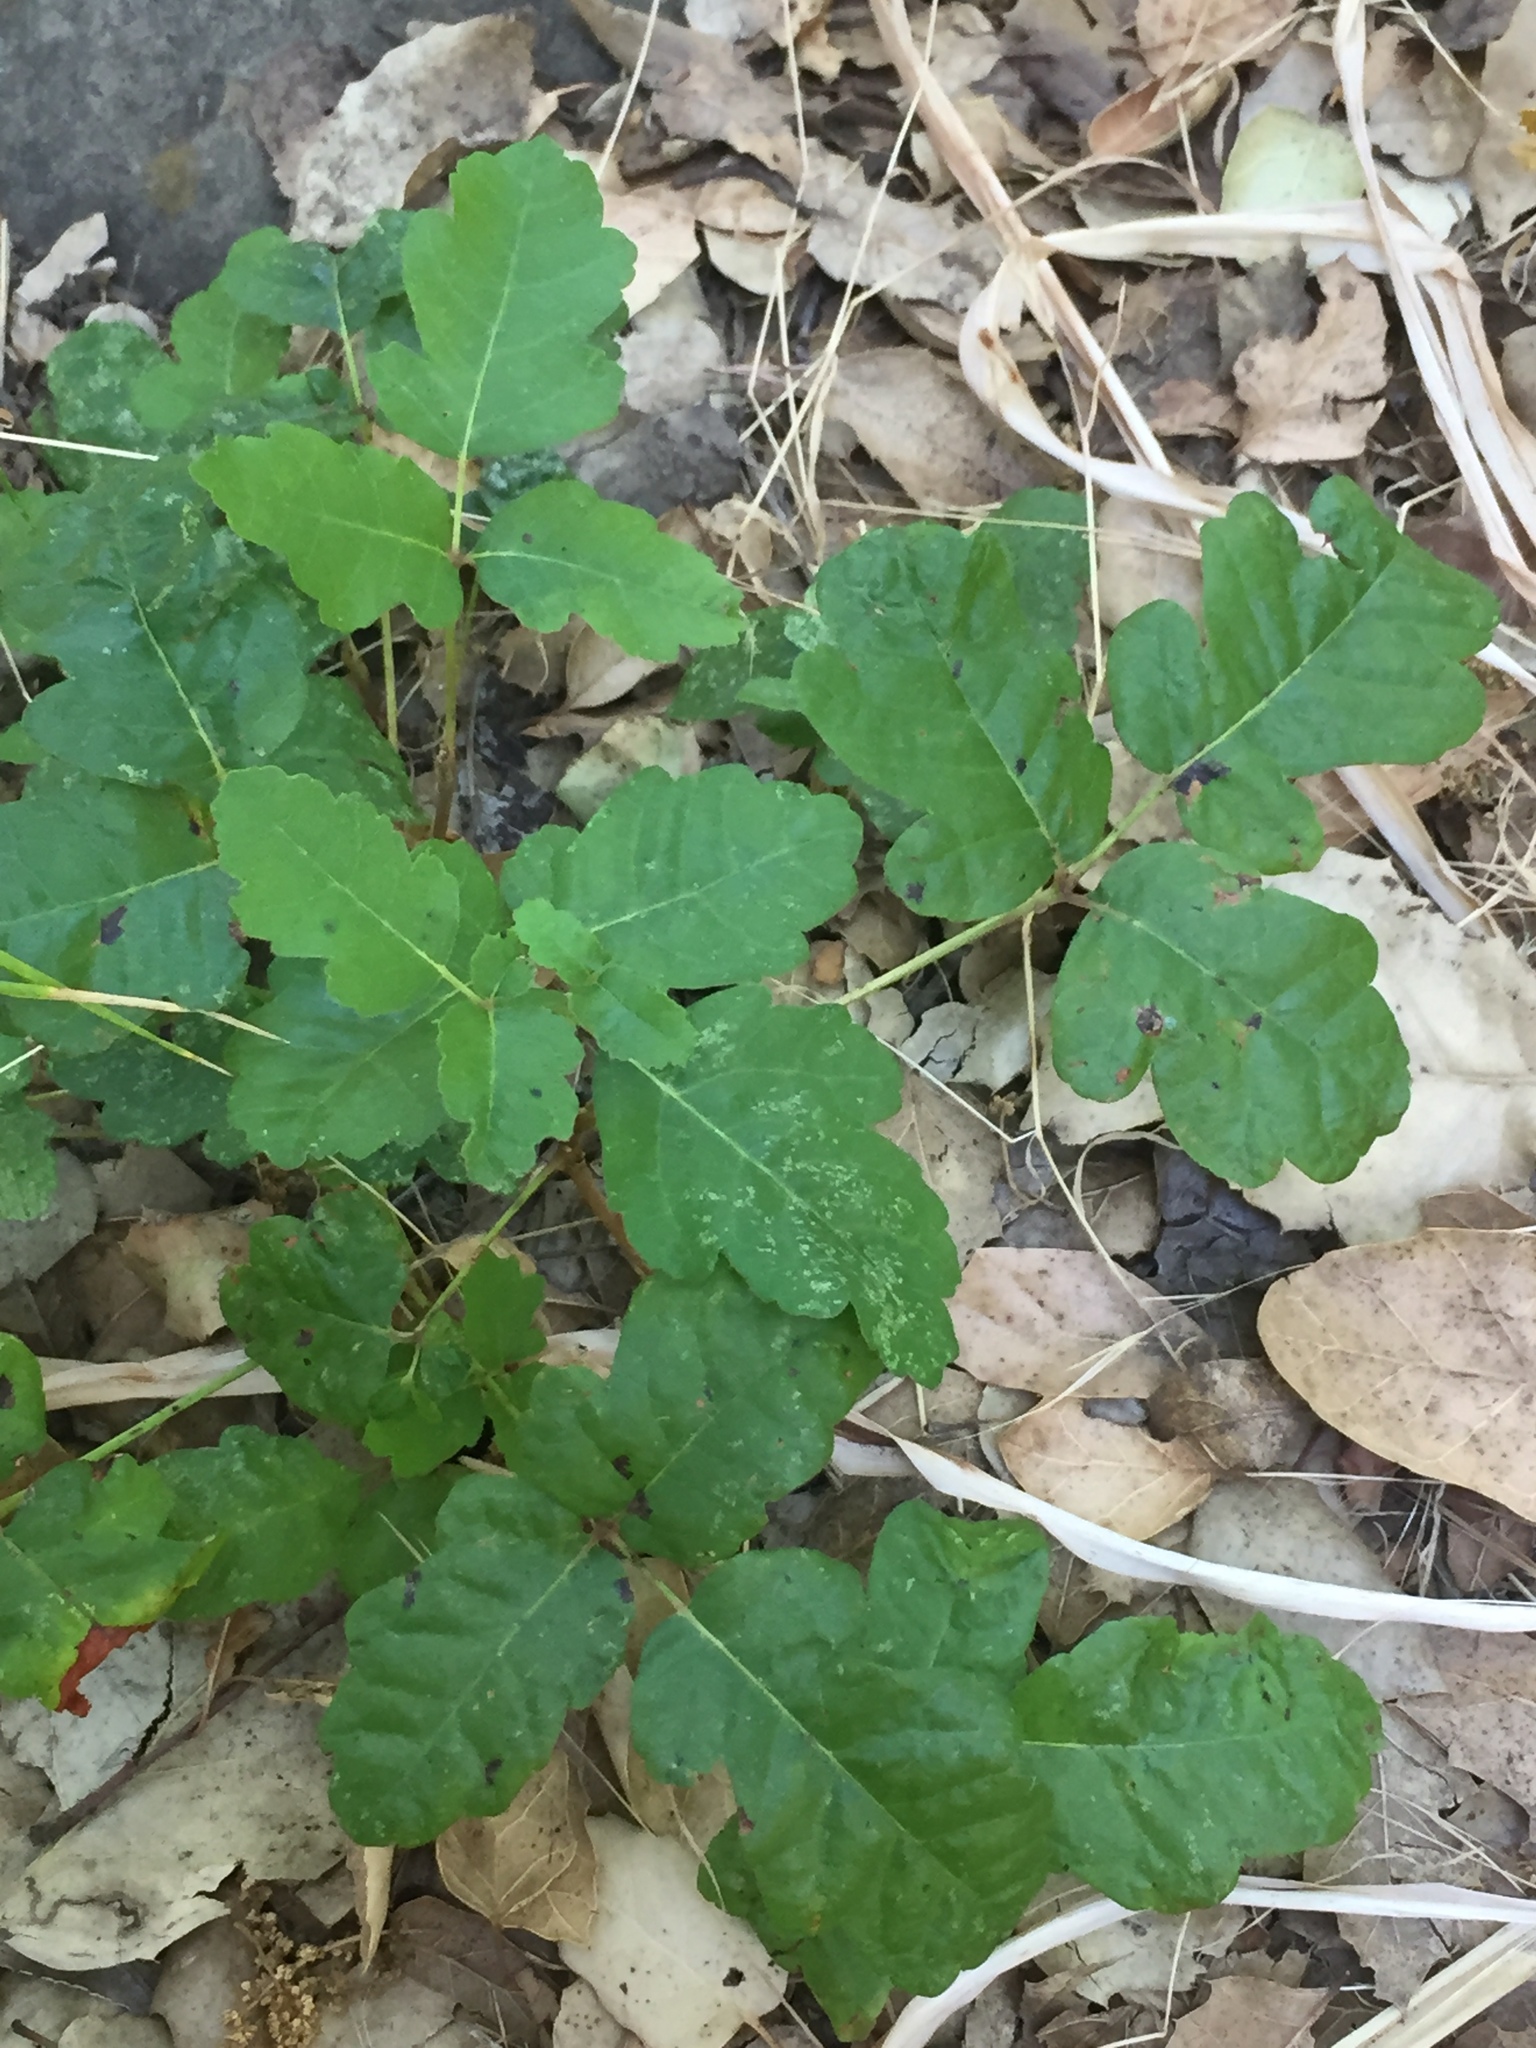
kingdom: Plantae
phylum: Tracheophyta
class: Magnoliopsida
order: Sapindales
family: Anacardiaceae
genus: Toxicodendron
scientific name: Toxicodendron diversilobum
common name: Pacific poison-oak
